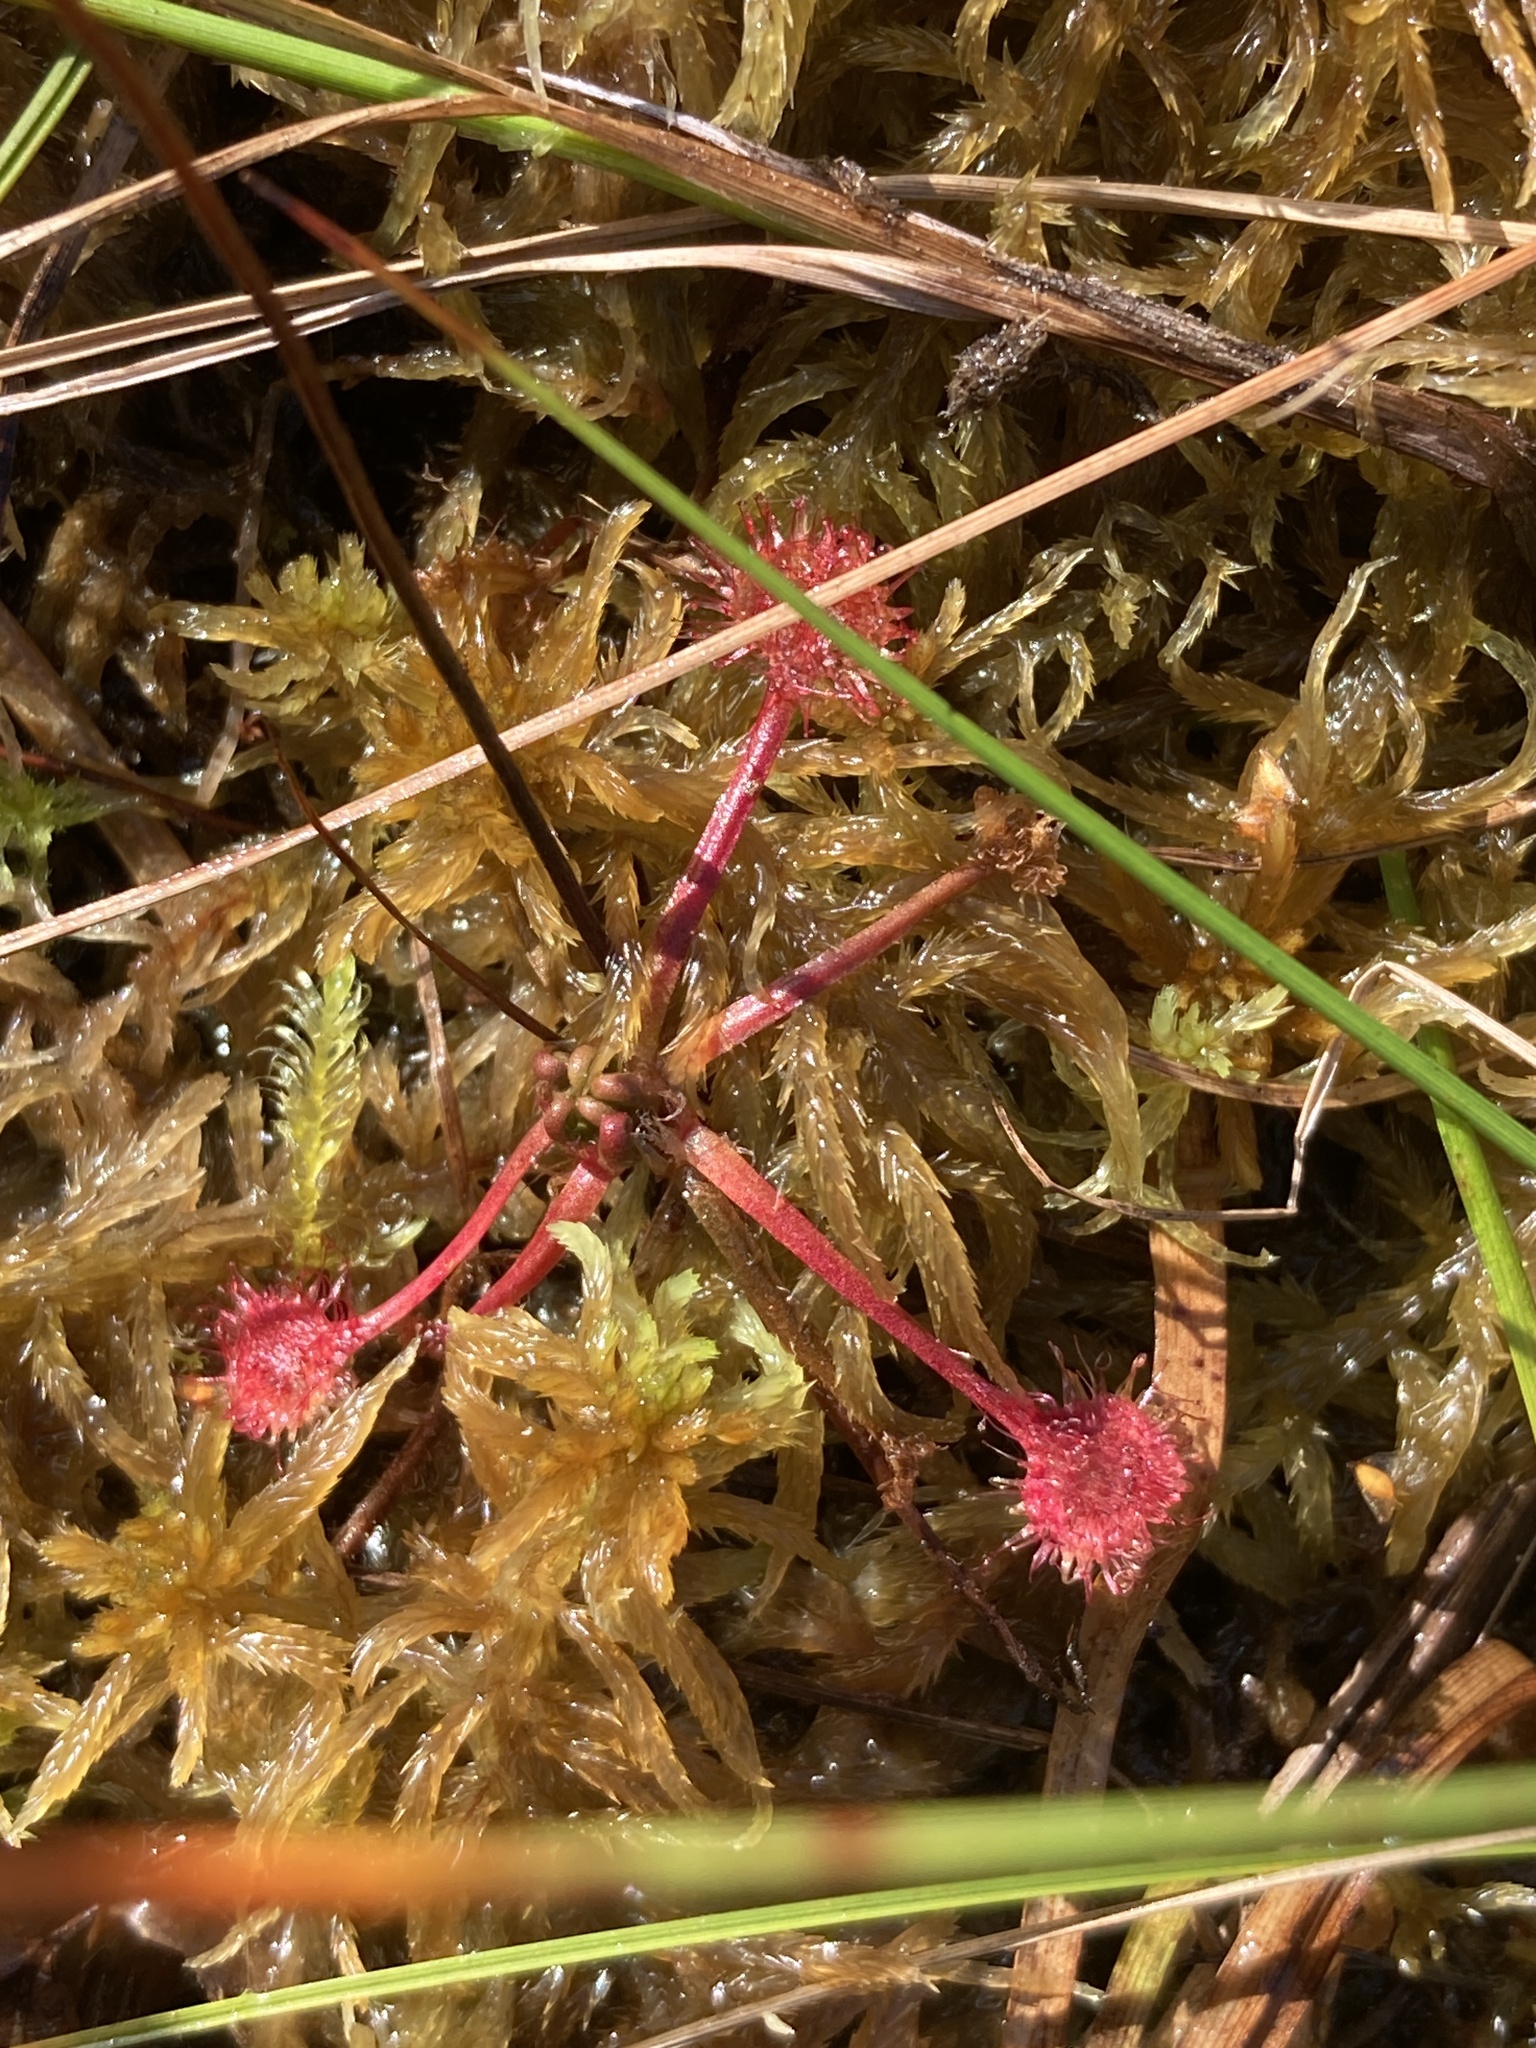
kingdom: Plantae
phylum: Tracheophyta
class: Magnoliopsida
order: Caryophyllales
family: Droseraceae
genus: Drosera
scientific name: Drosera rotundifolia
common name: Round-leaved sundew
